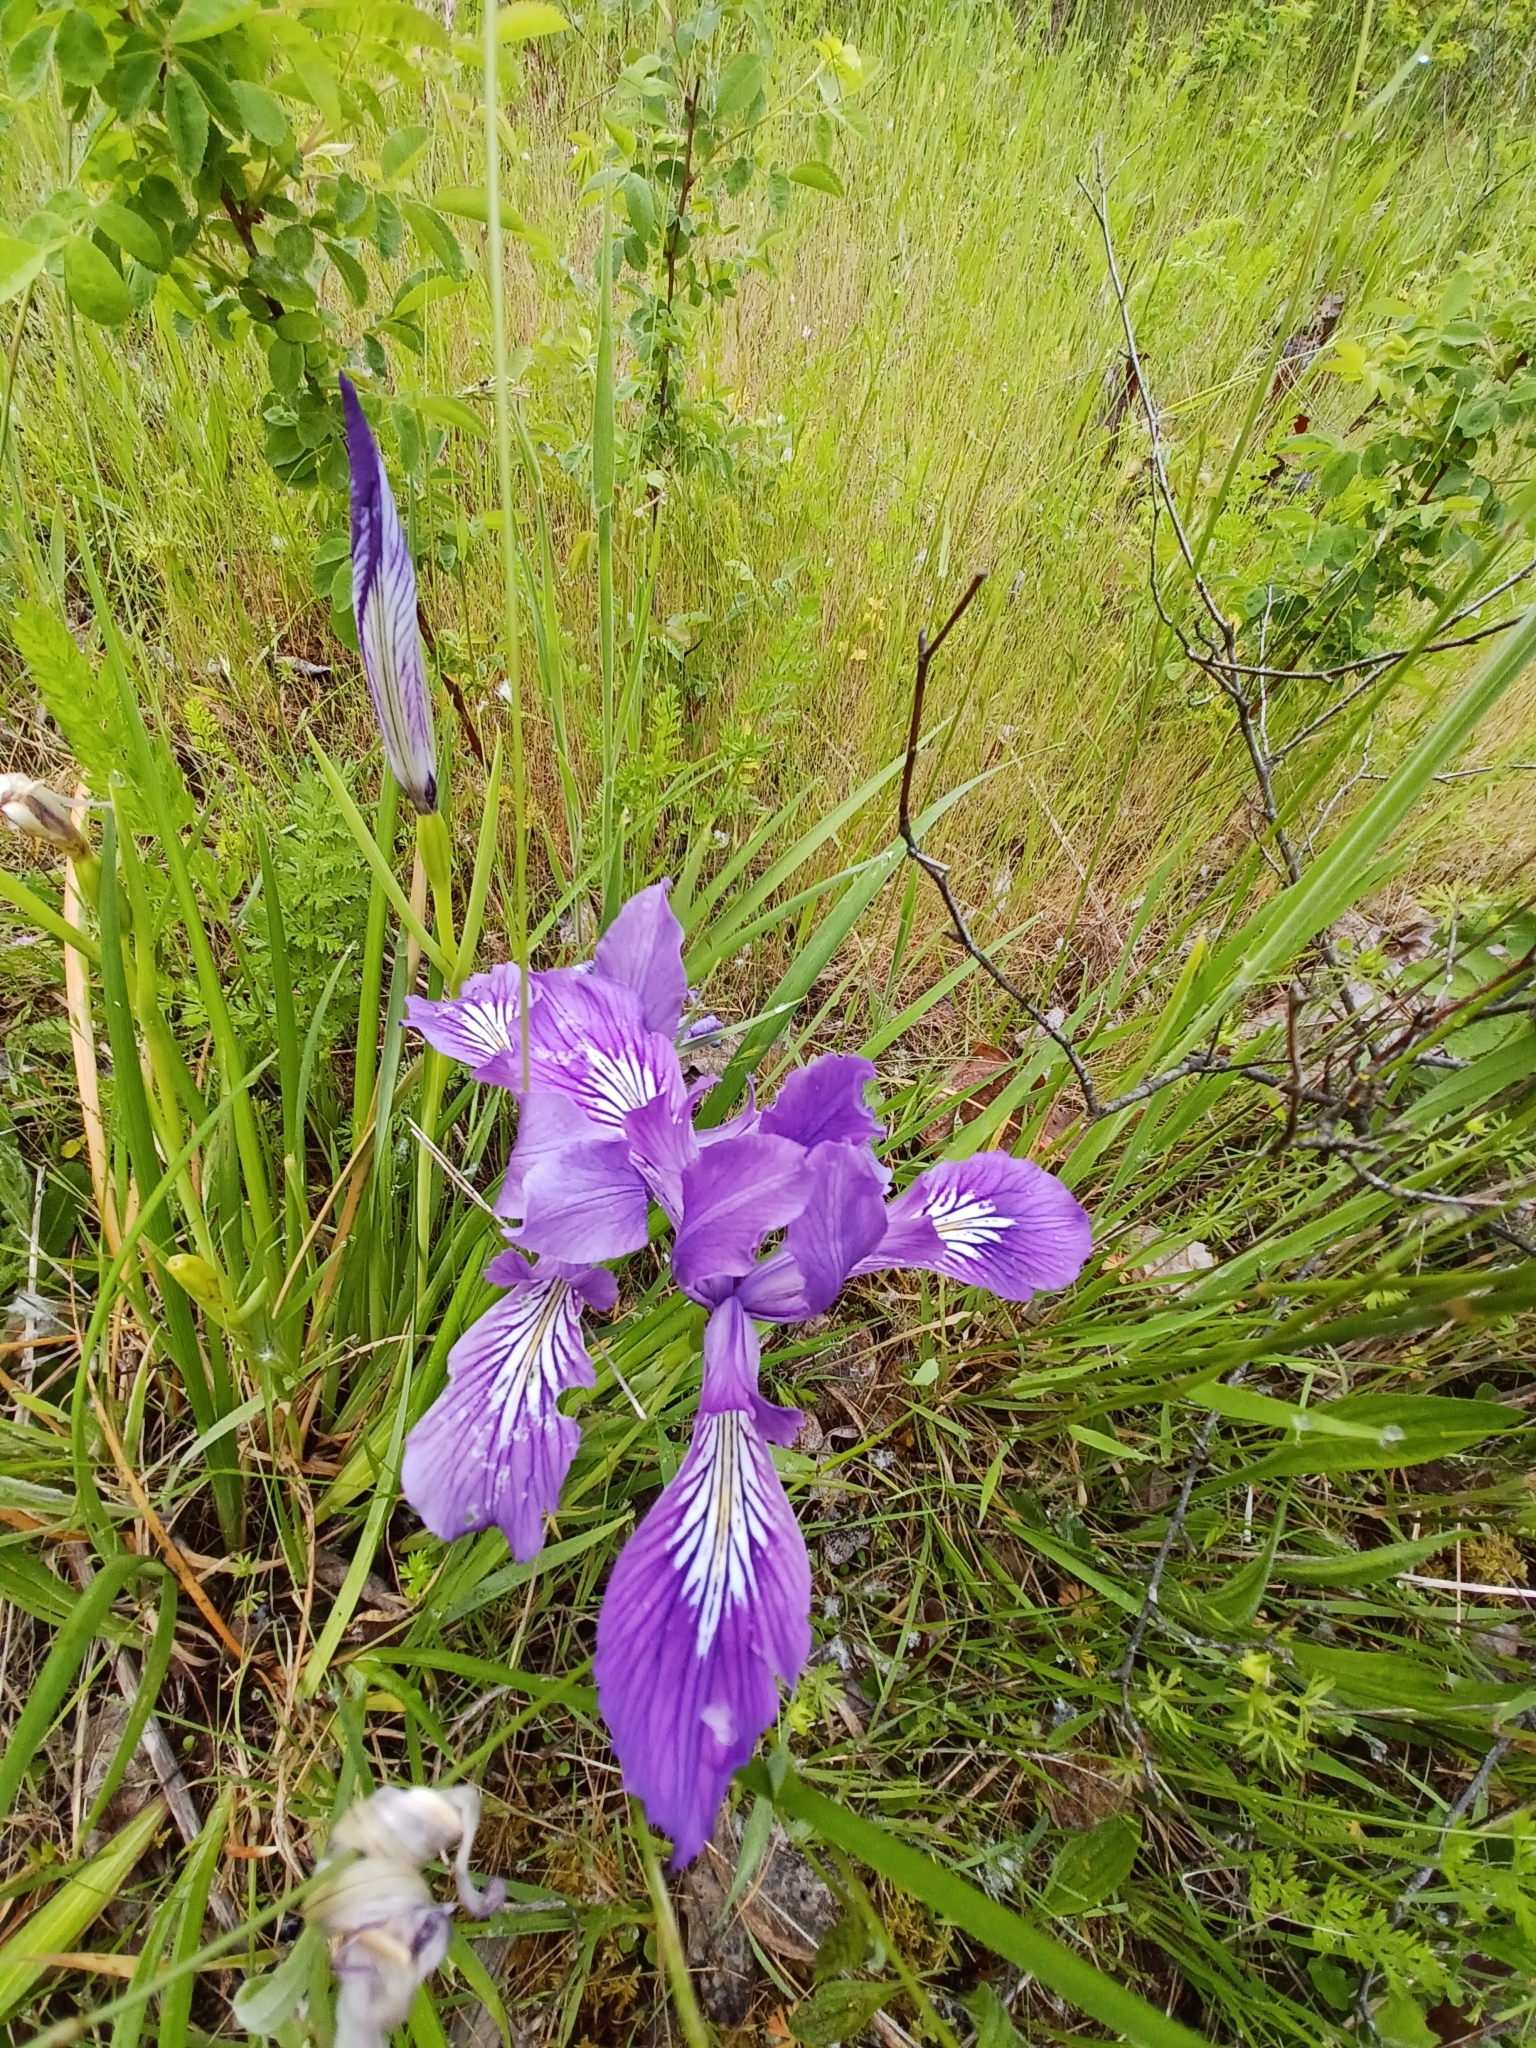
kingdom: Plantae
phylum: Tracheophyta
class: Liliopsida
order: Asparagales
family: Iridaceae
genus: Iris
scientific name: Iris tenax
